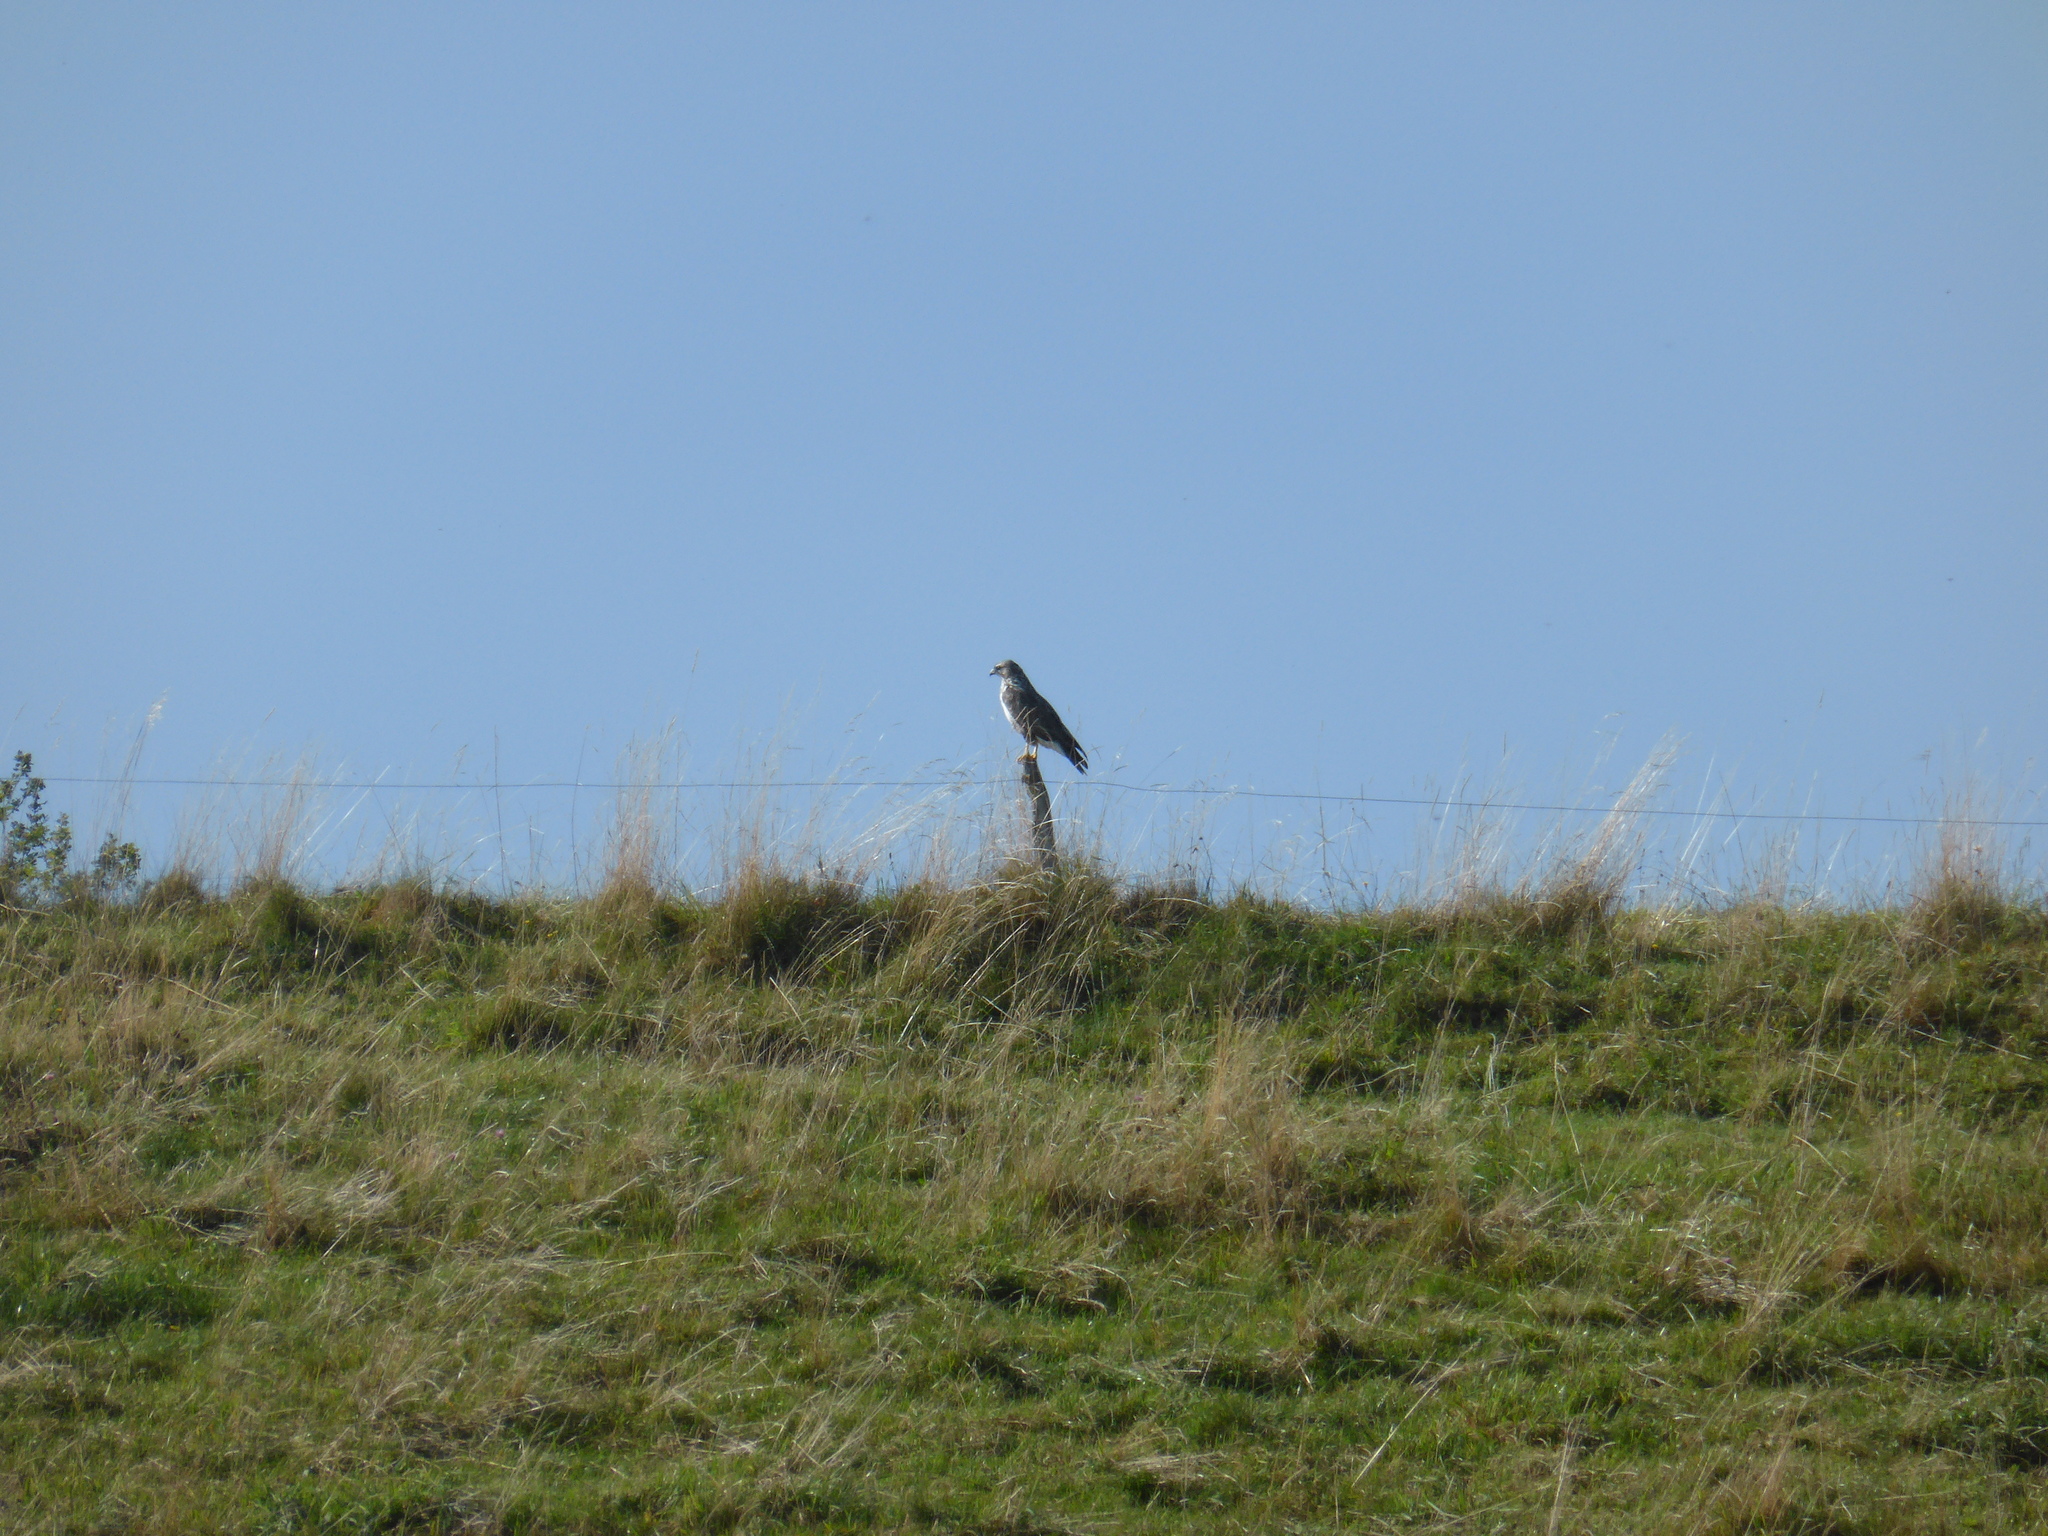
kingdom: Animalia
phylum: Chordata
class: Aves
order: Accipitriformes
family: Accipitridae
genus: Buteo
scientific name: Buteo buteo
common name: Common buzzard
